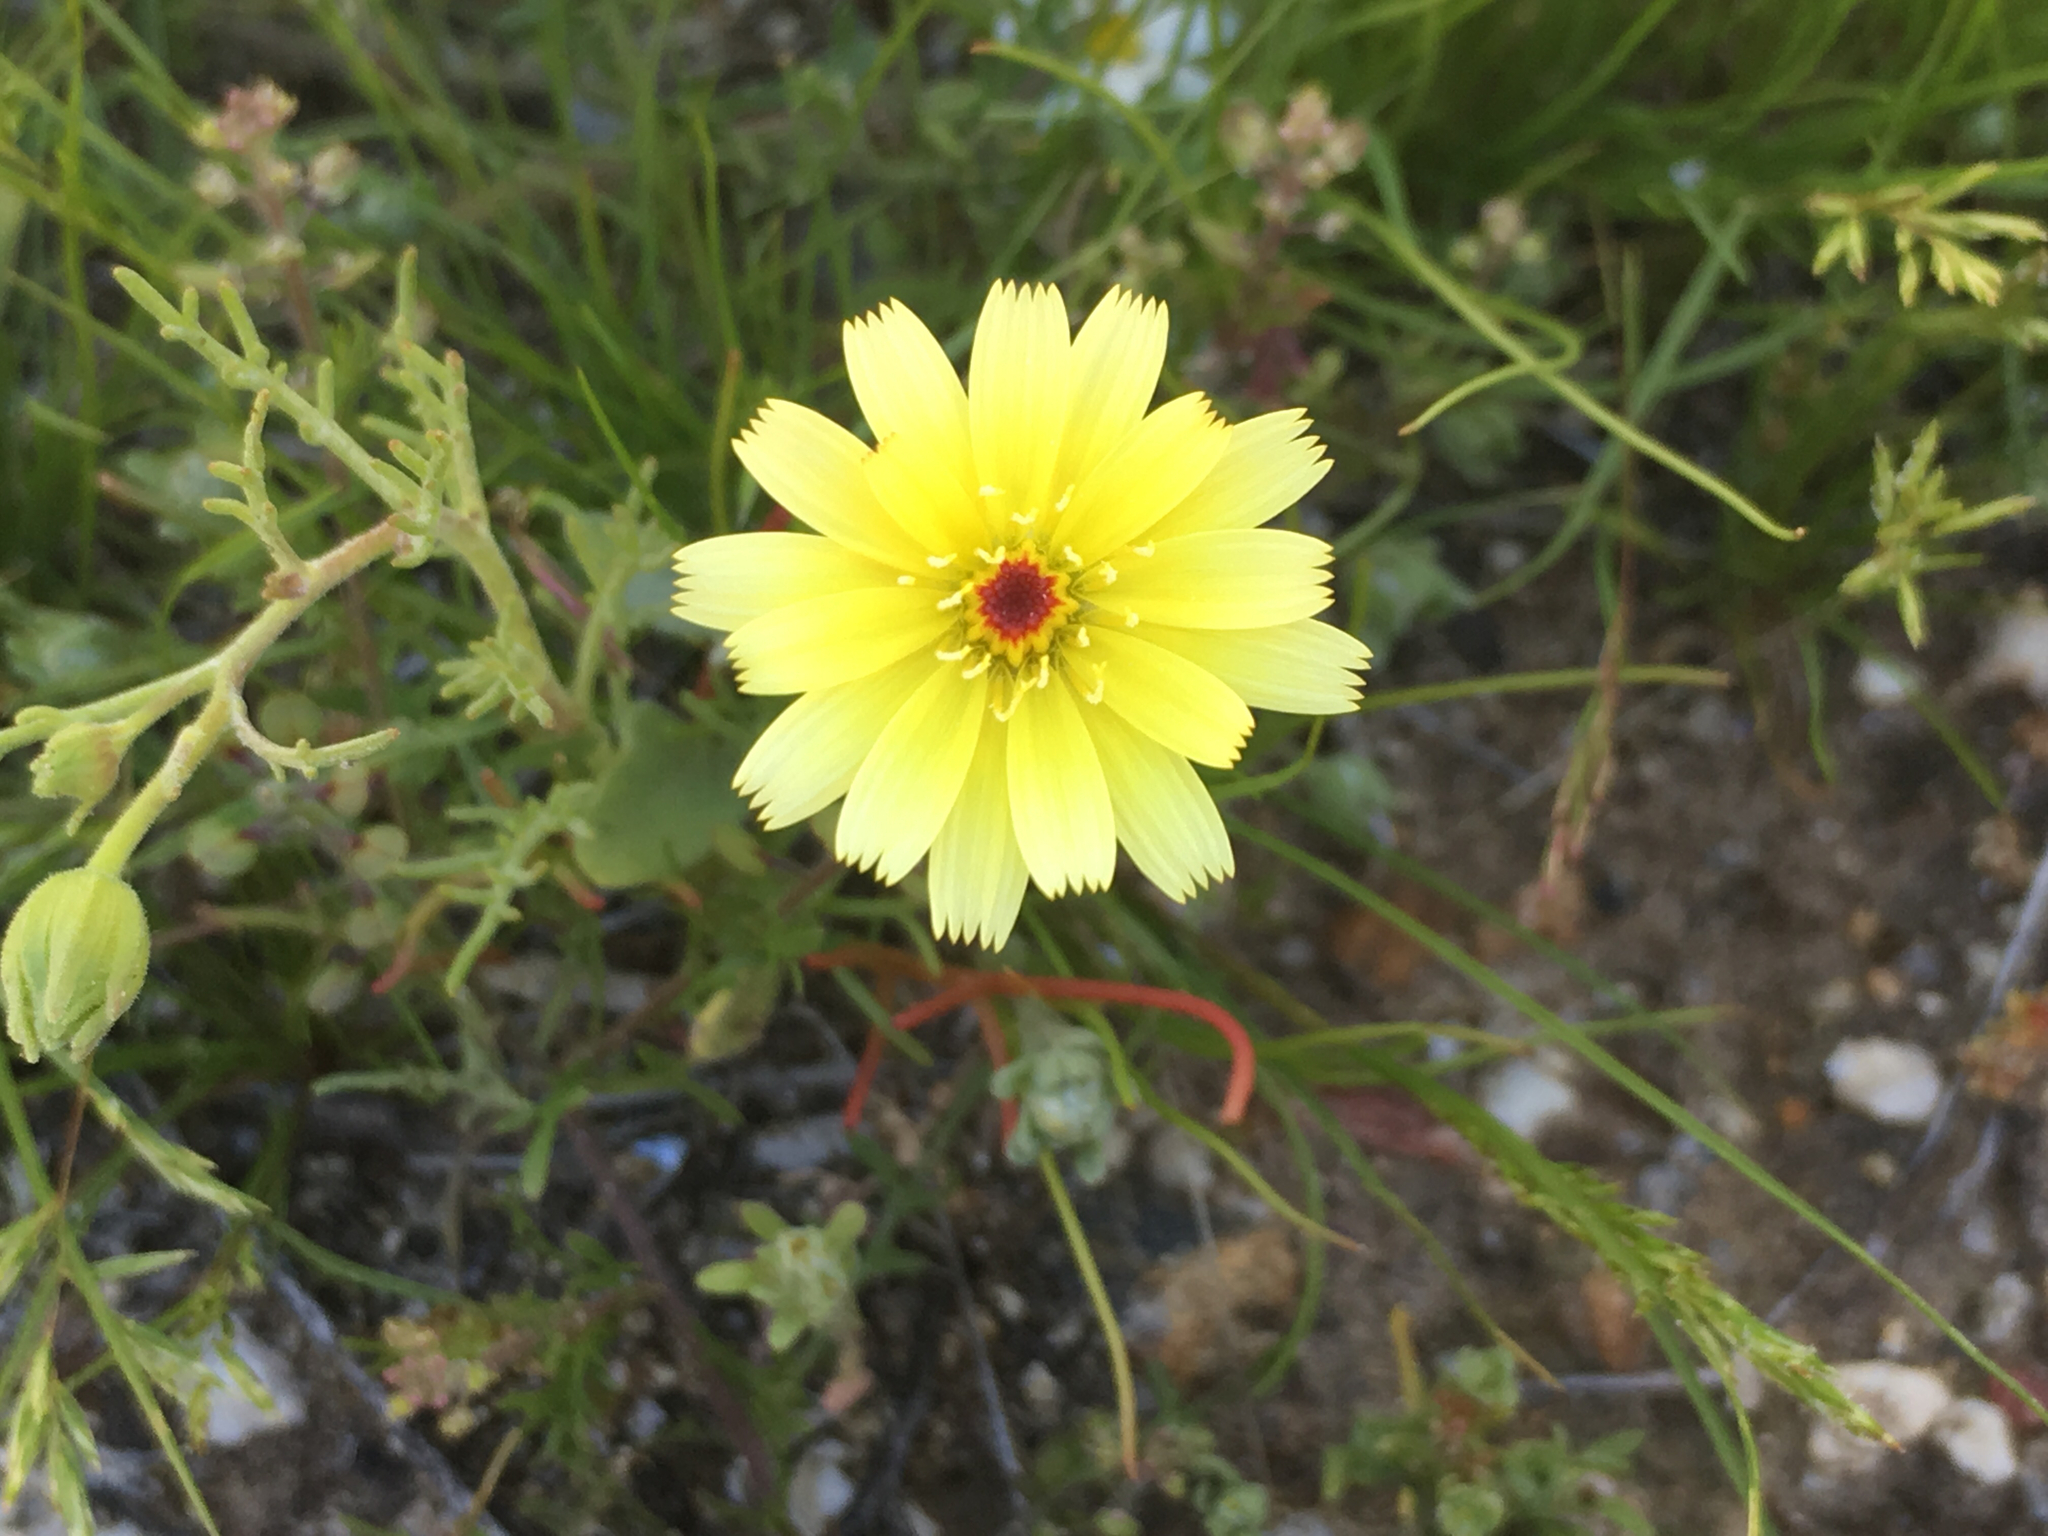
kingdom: Plantae
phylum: Tracheophyta
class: Magnoliopsida
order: Asterales
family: Asteraceae
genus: Malacothrix
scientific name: Malacothrix glabrata
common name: Smooth desert-dandelion
